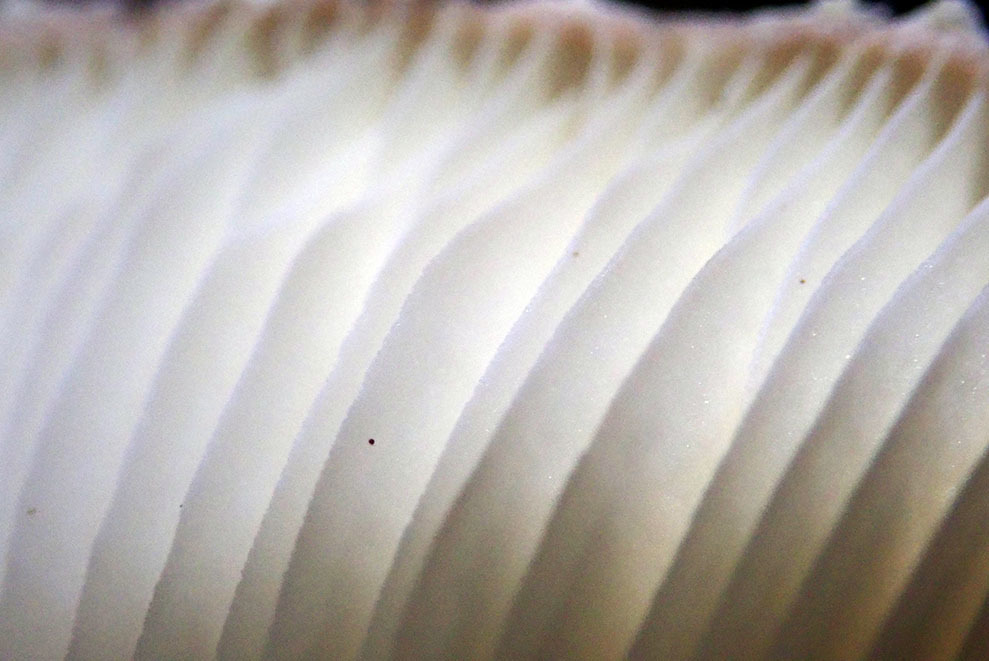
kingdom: Fungi
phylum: Basidiomycota
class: Agaricomycetes
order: Agaricales
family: Agaricaceae
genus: Macrolepiota
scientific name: Macrolepiota clelandii
